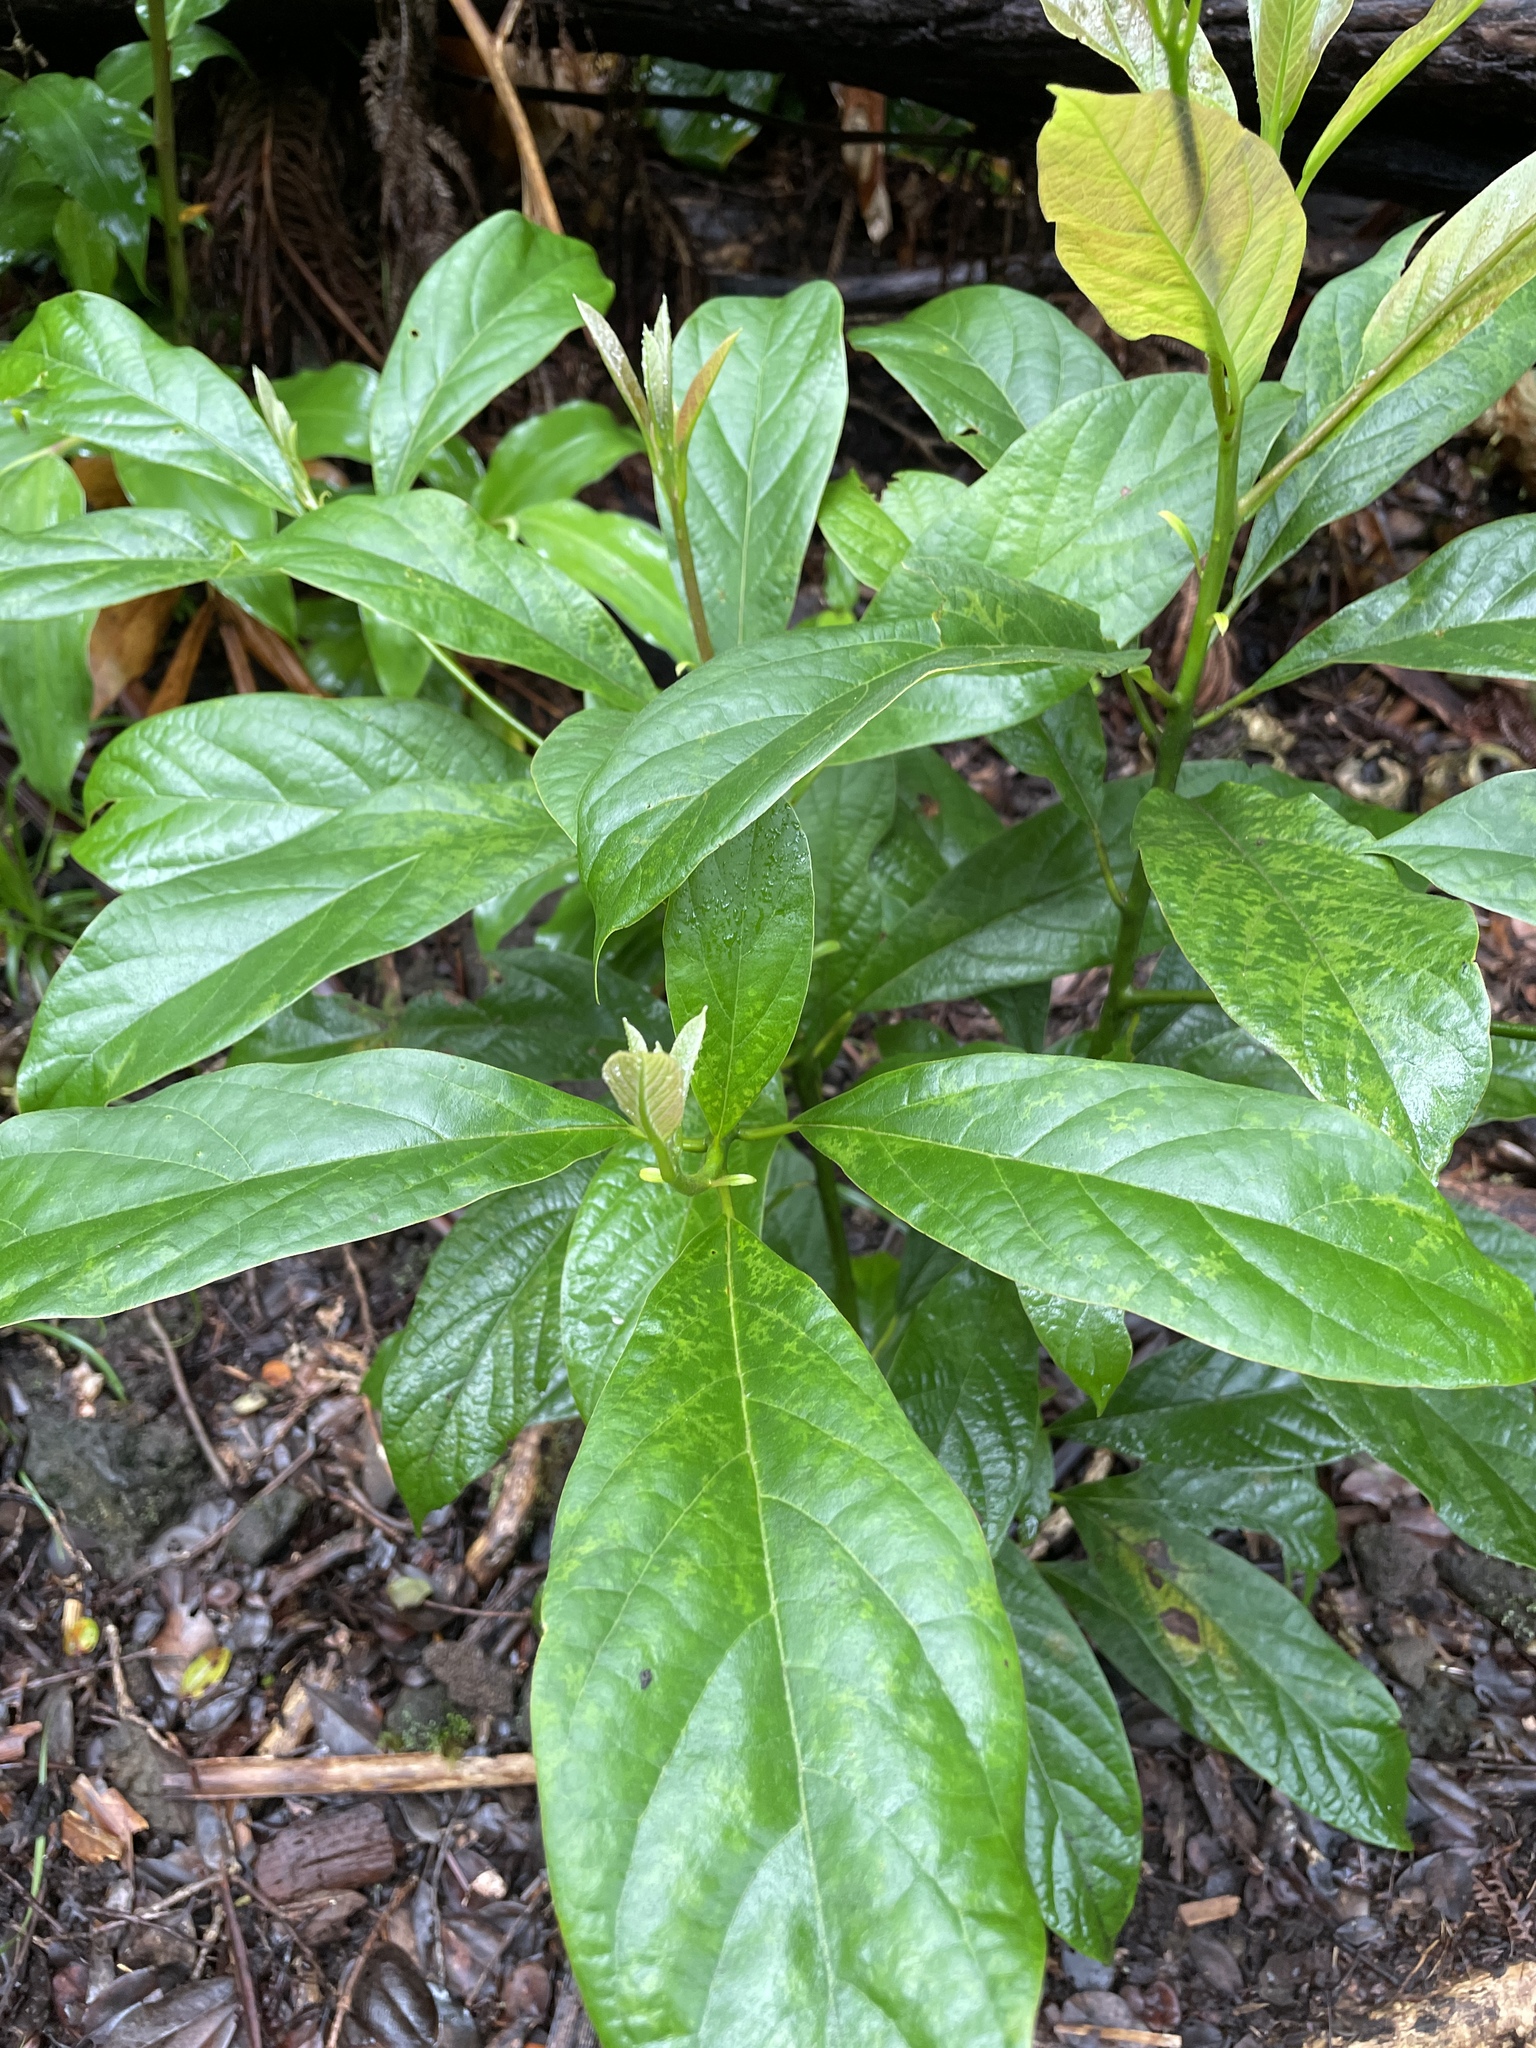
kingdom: Plantae
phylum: Tracheophyta
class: Magnoliopsida
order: Laurales
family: Lauraceae
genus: Persea
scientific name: Persea americana
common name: Avocado
